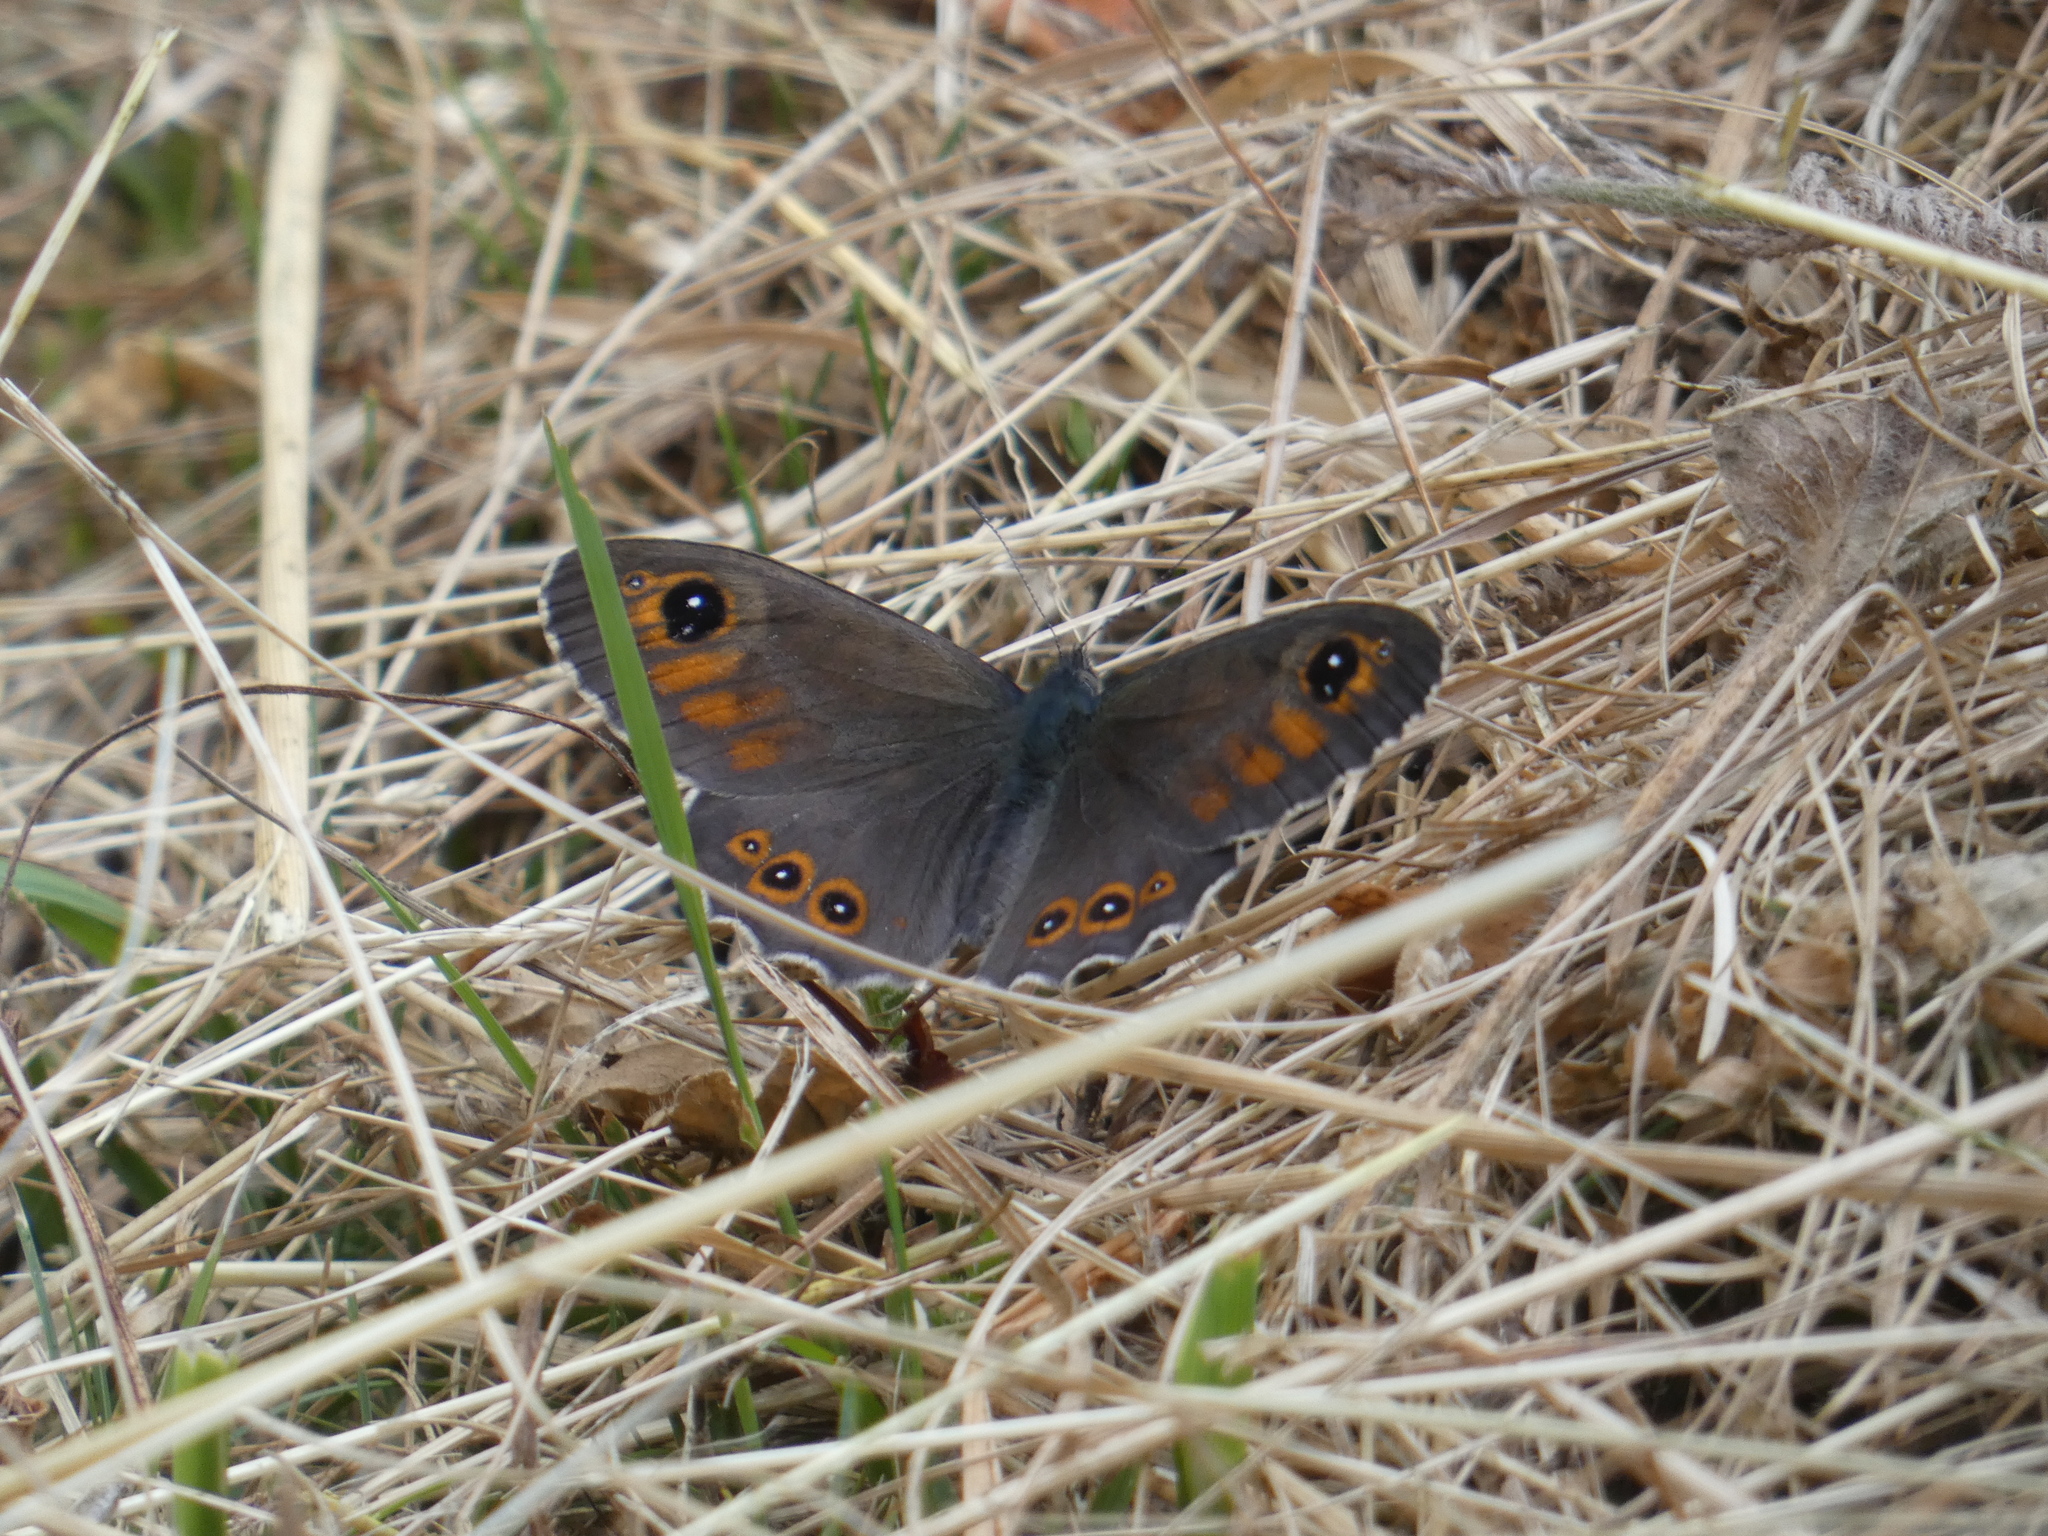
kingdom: Animalia
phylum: Arthropoda
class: Insecta
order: Lepidoptera
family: Nymphalidae
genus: Pararge
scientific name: Pararge Lasiommata maera
